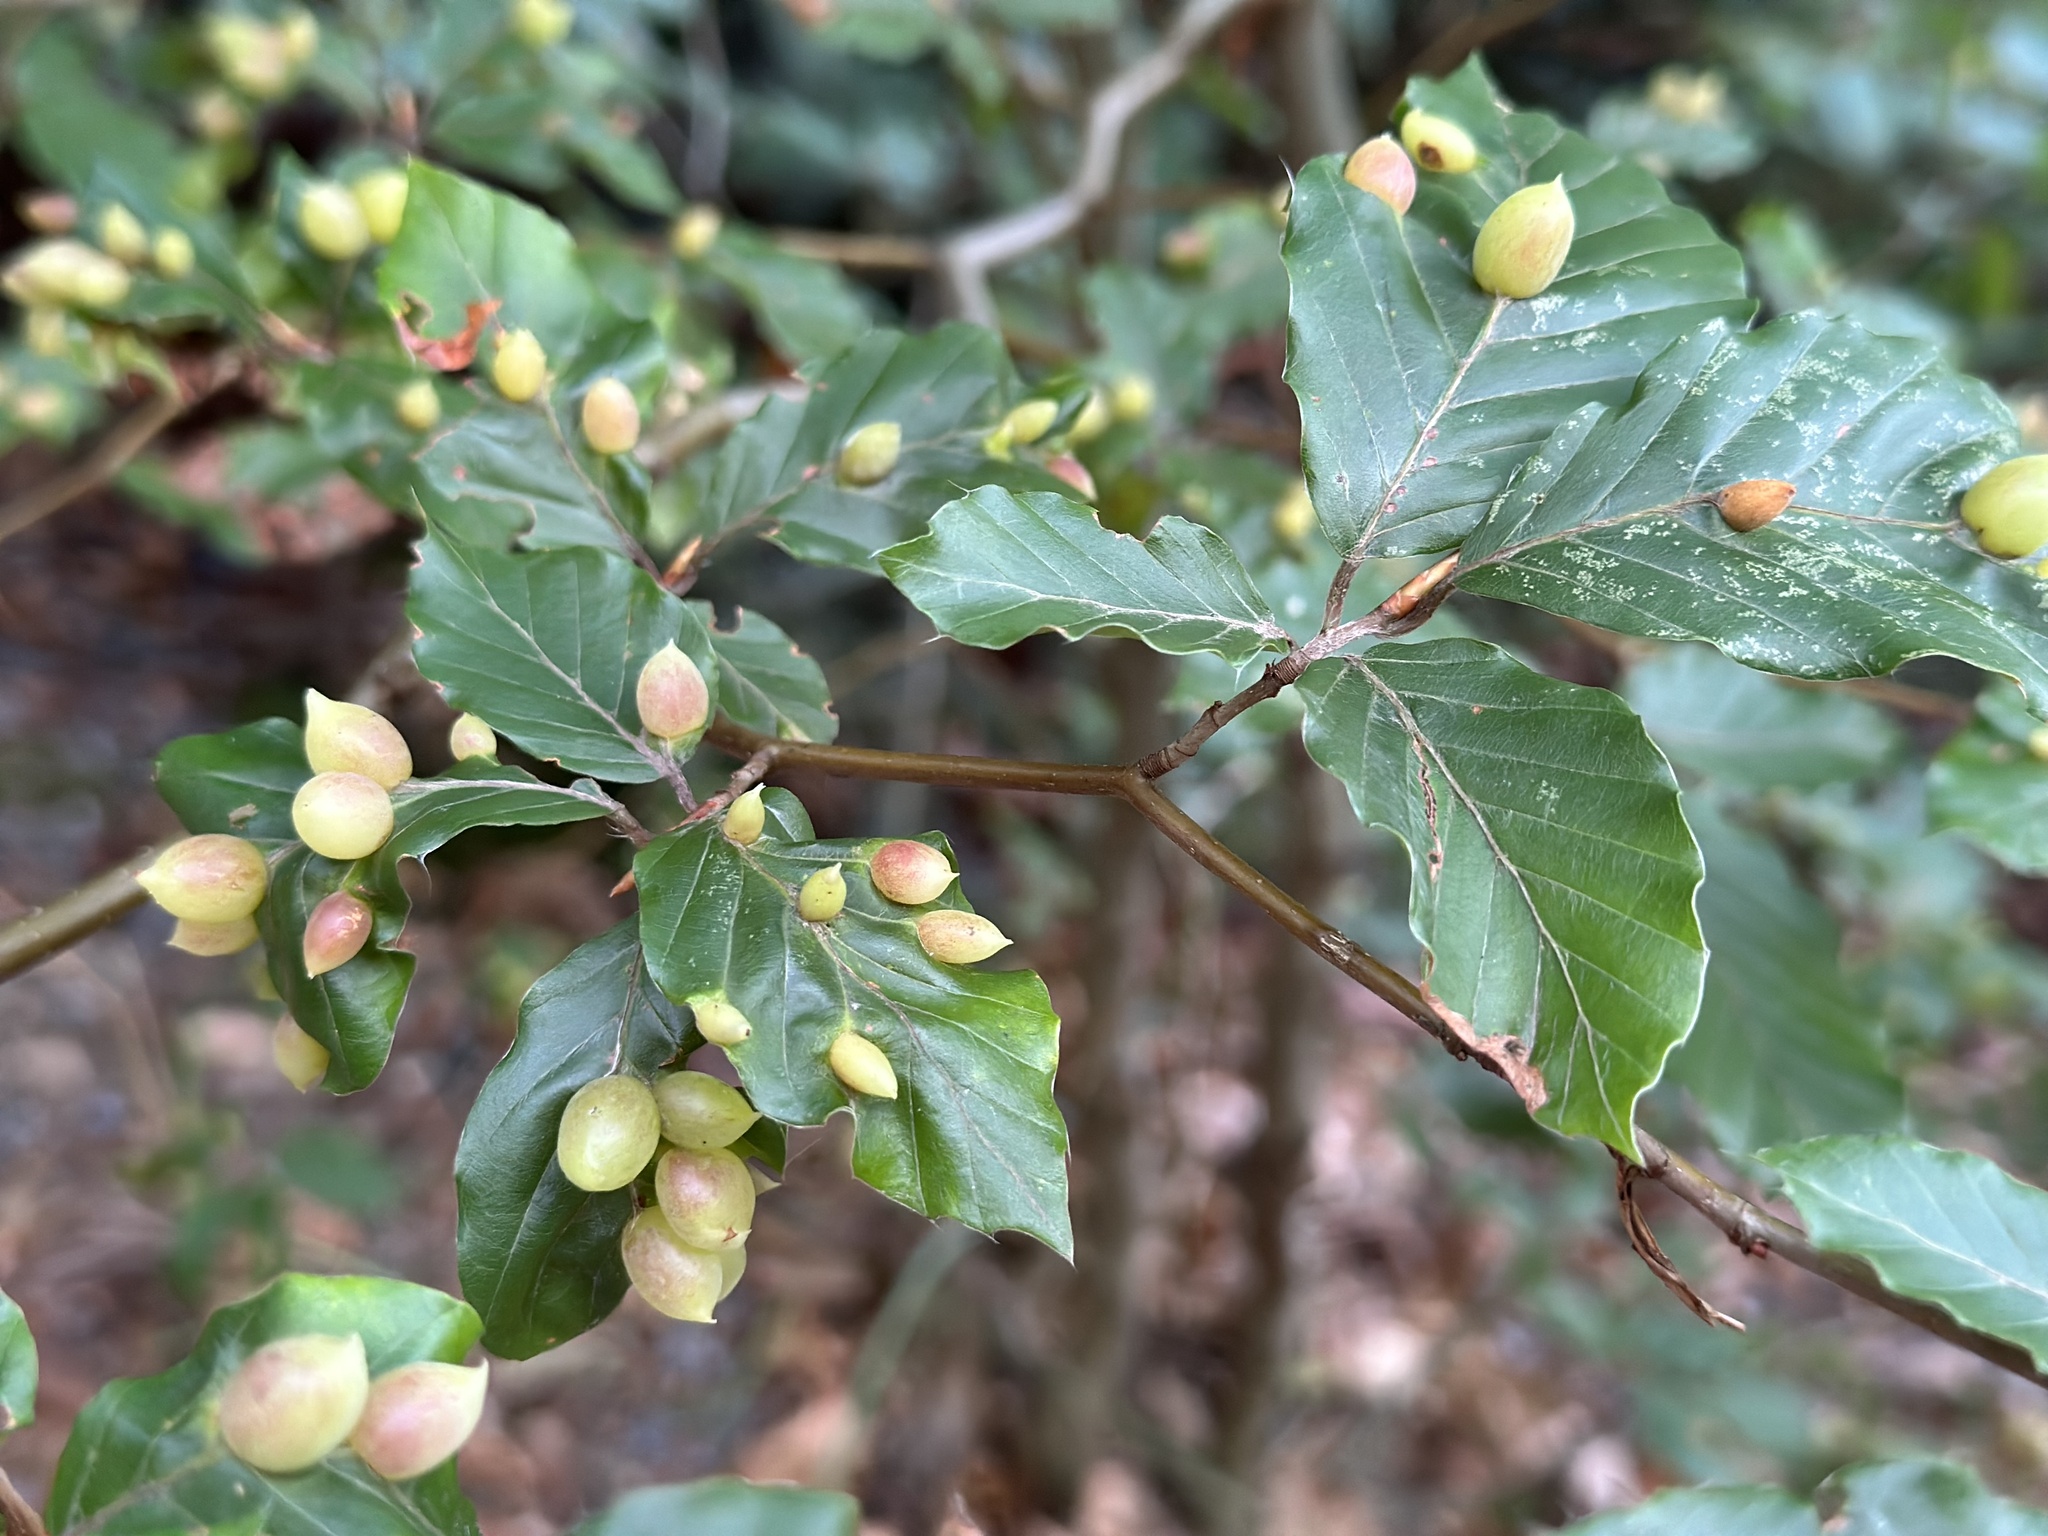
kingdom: Animalia
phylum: Arthropoda
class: Insecta
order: Diptera
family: Cecidomyiidae
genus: Mikiola
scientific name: Mikiola fagi
